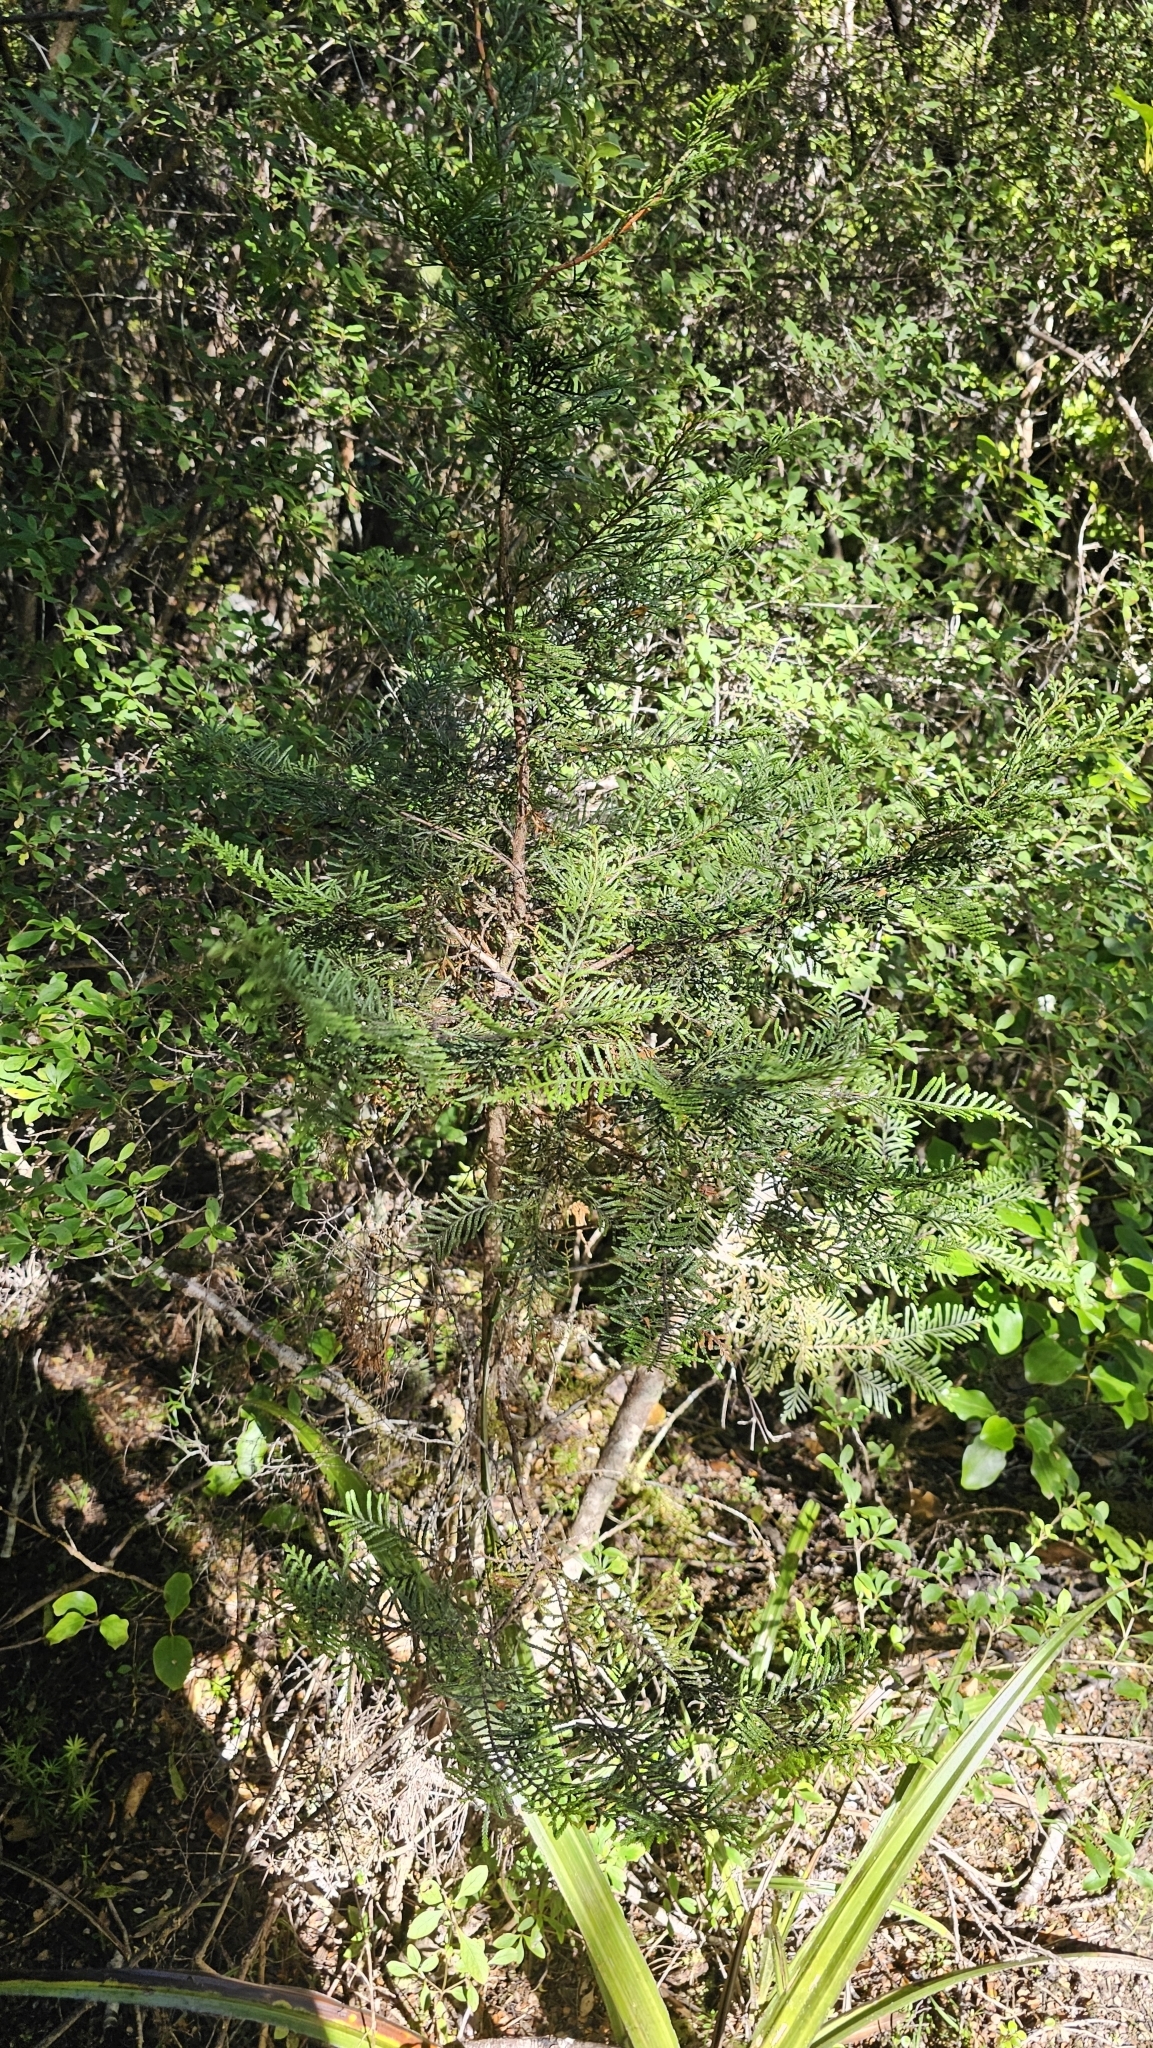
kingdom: Plantae
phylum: Tracheophyta
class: Pinopsida
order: Pinales
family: Cupressaceae
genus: Libocedrus
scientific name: Libocedrus bidwillii
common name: Cedar
